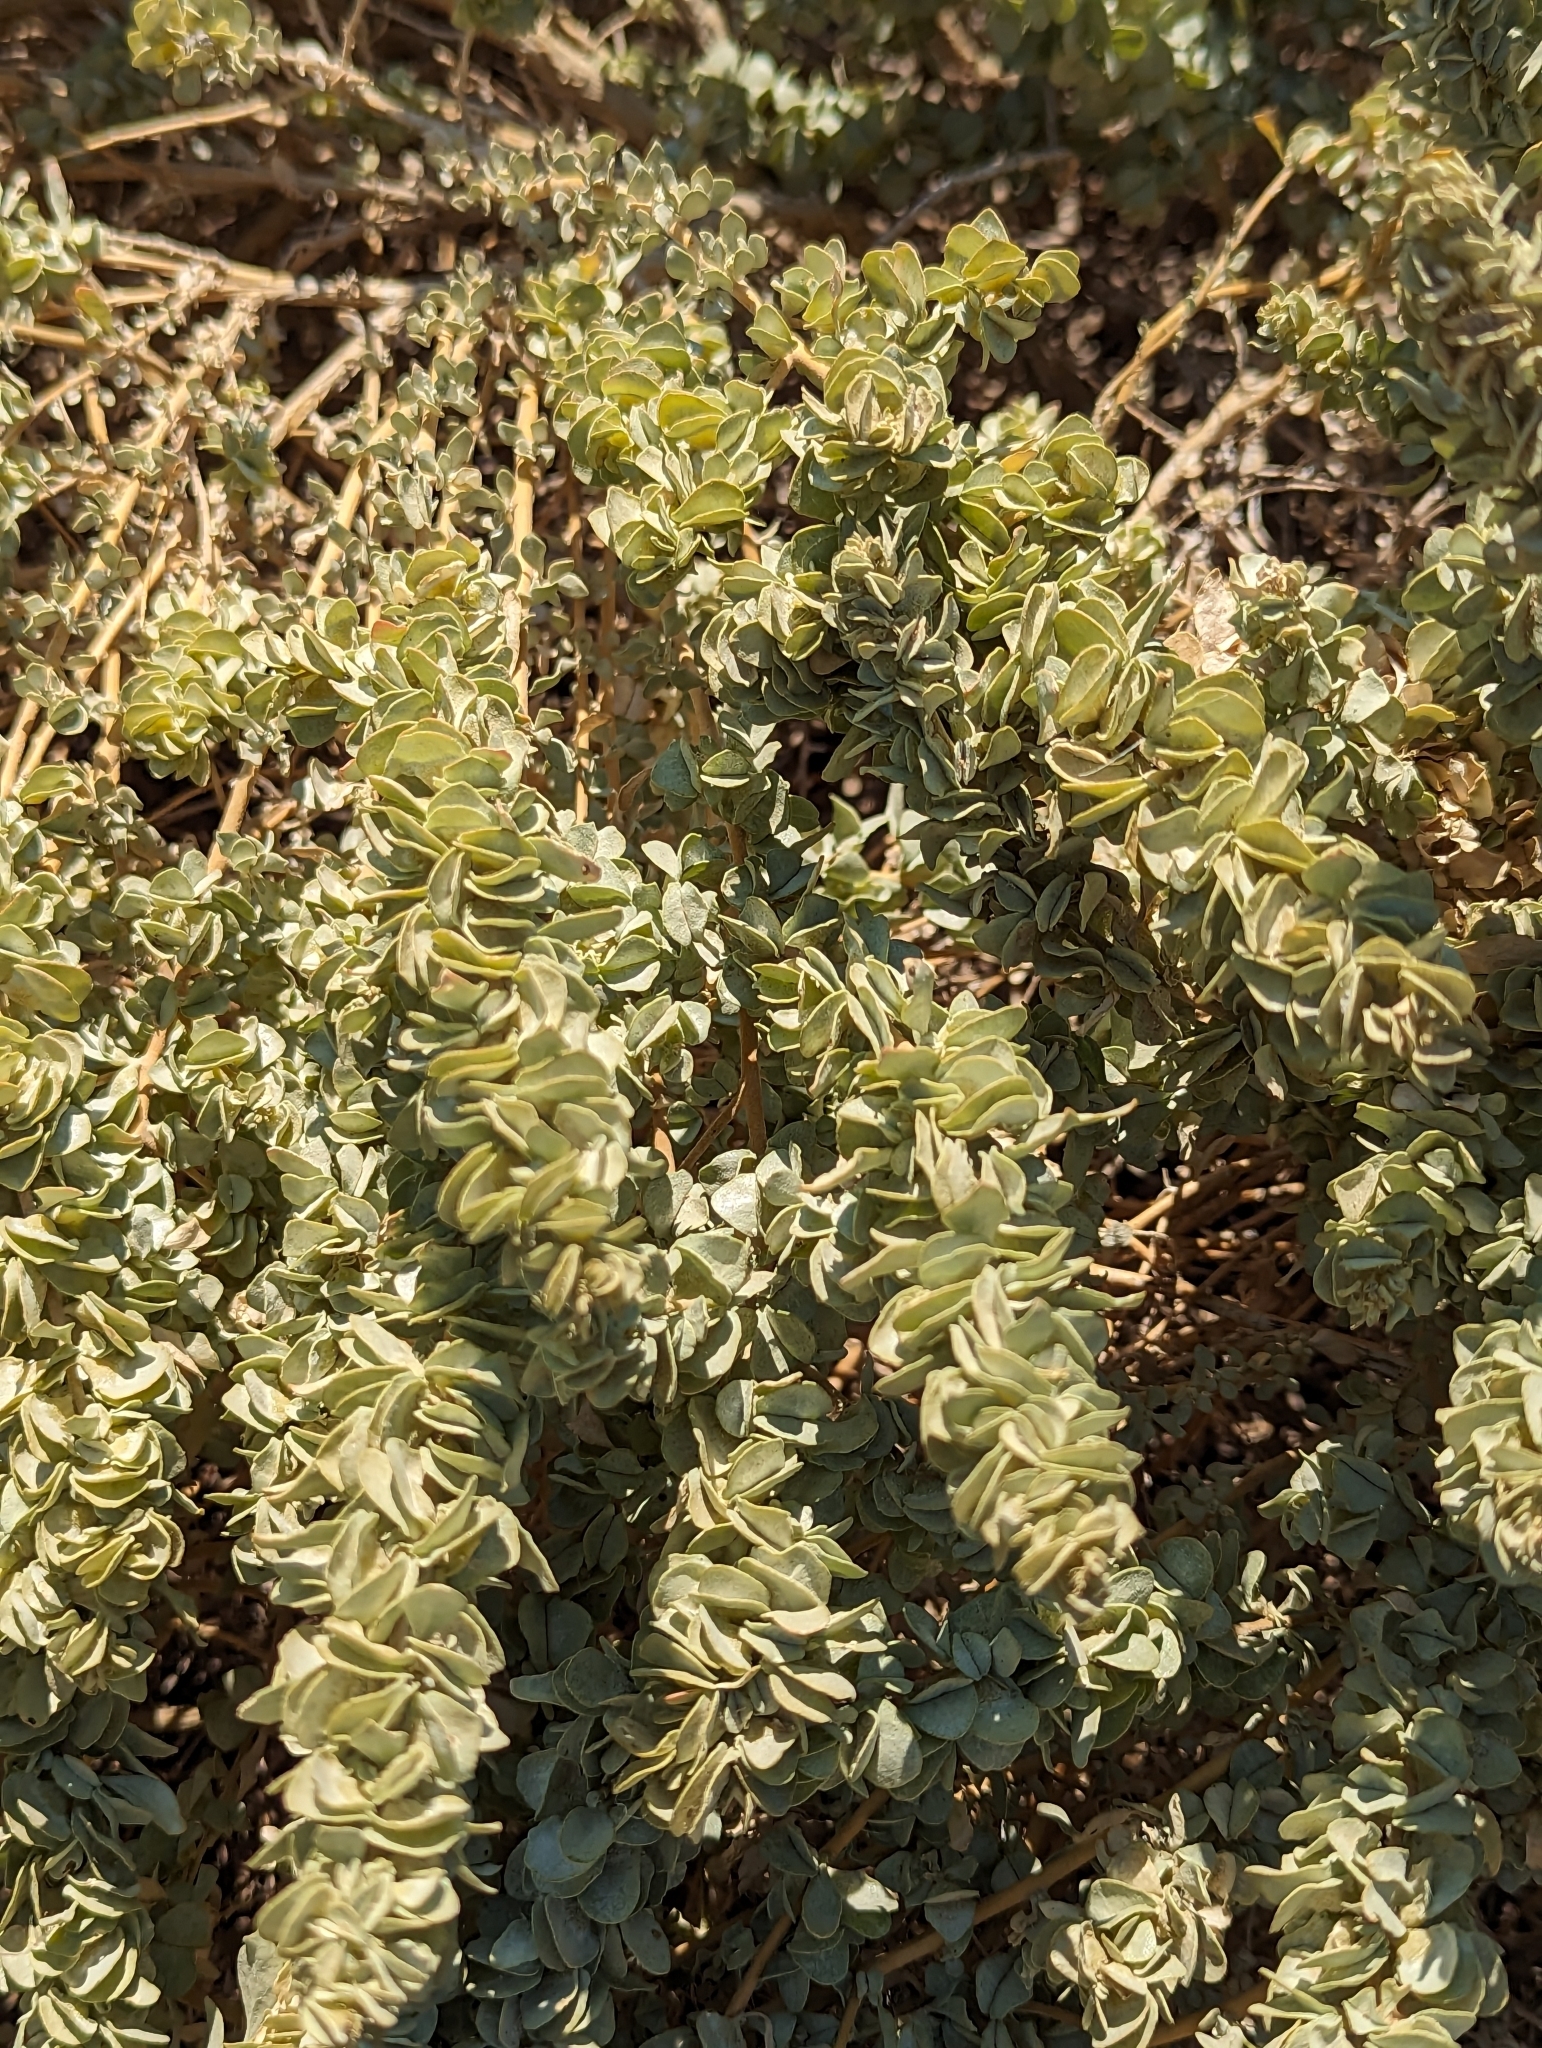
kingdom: Plantae
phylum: Tracheophyta
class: Magnoliopsida
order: Caryophyllales
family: Amaranthaceae
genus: Atriplex
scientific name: Atriplex confertifolia
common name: Shadscale
